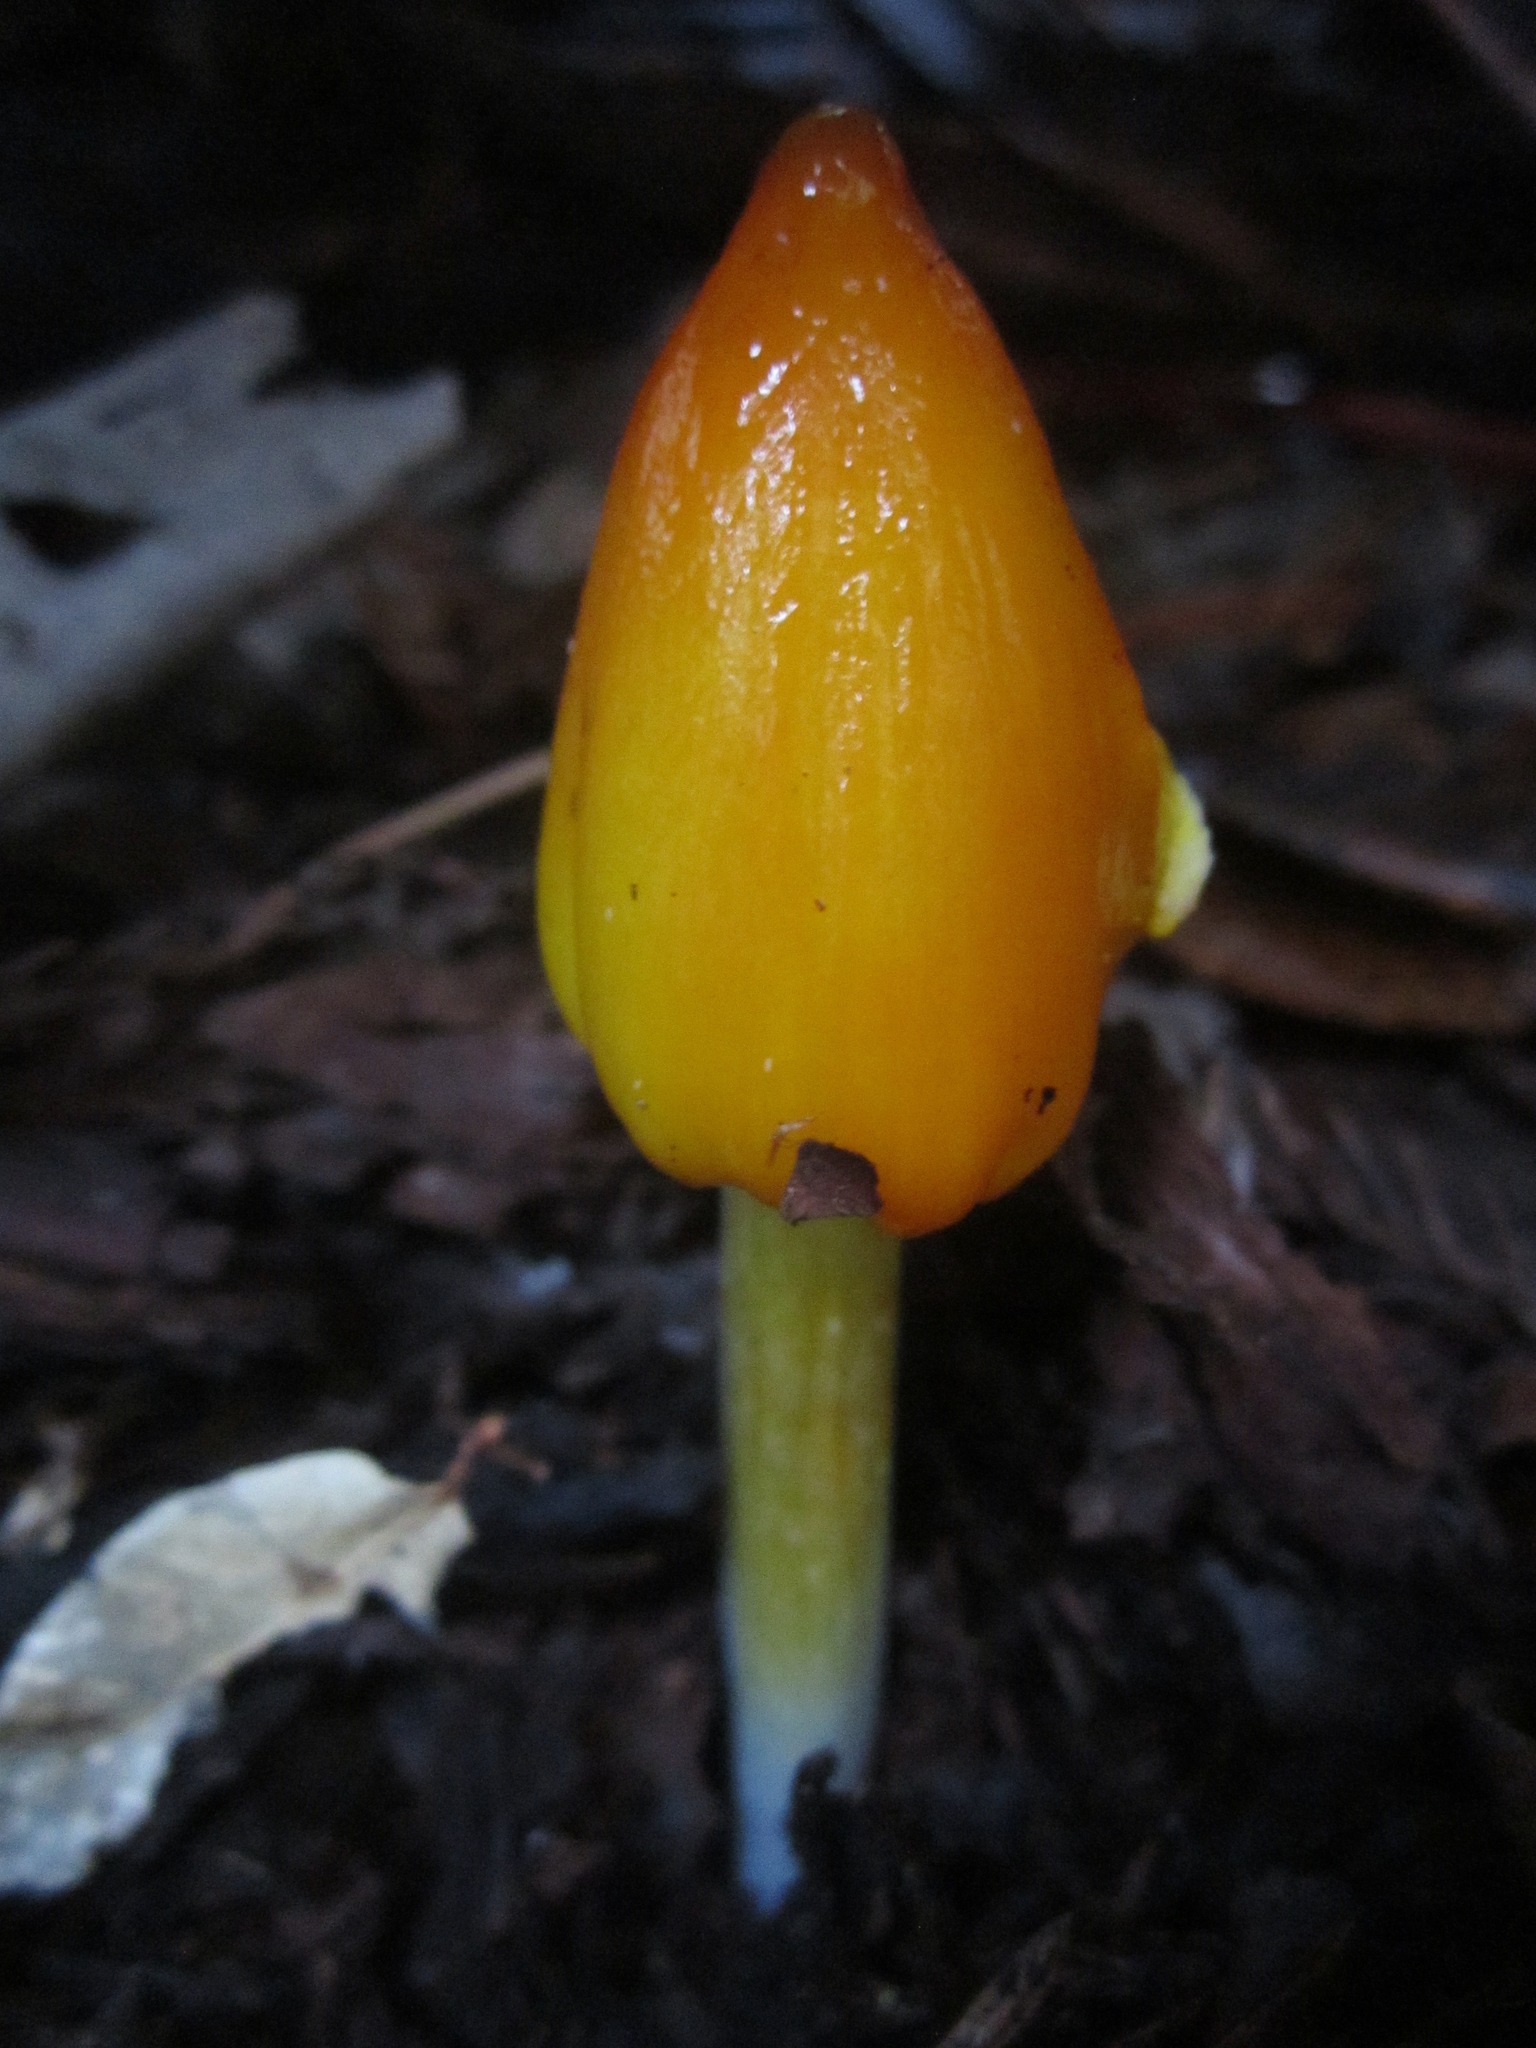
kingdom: Fungi
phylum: Basidiomycota
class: Agaricomycetes
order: Agaricales
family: Hygrophoraceae
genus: Hygrocybe
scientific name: Hygrocybe singeri
